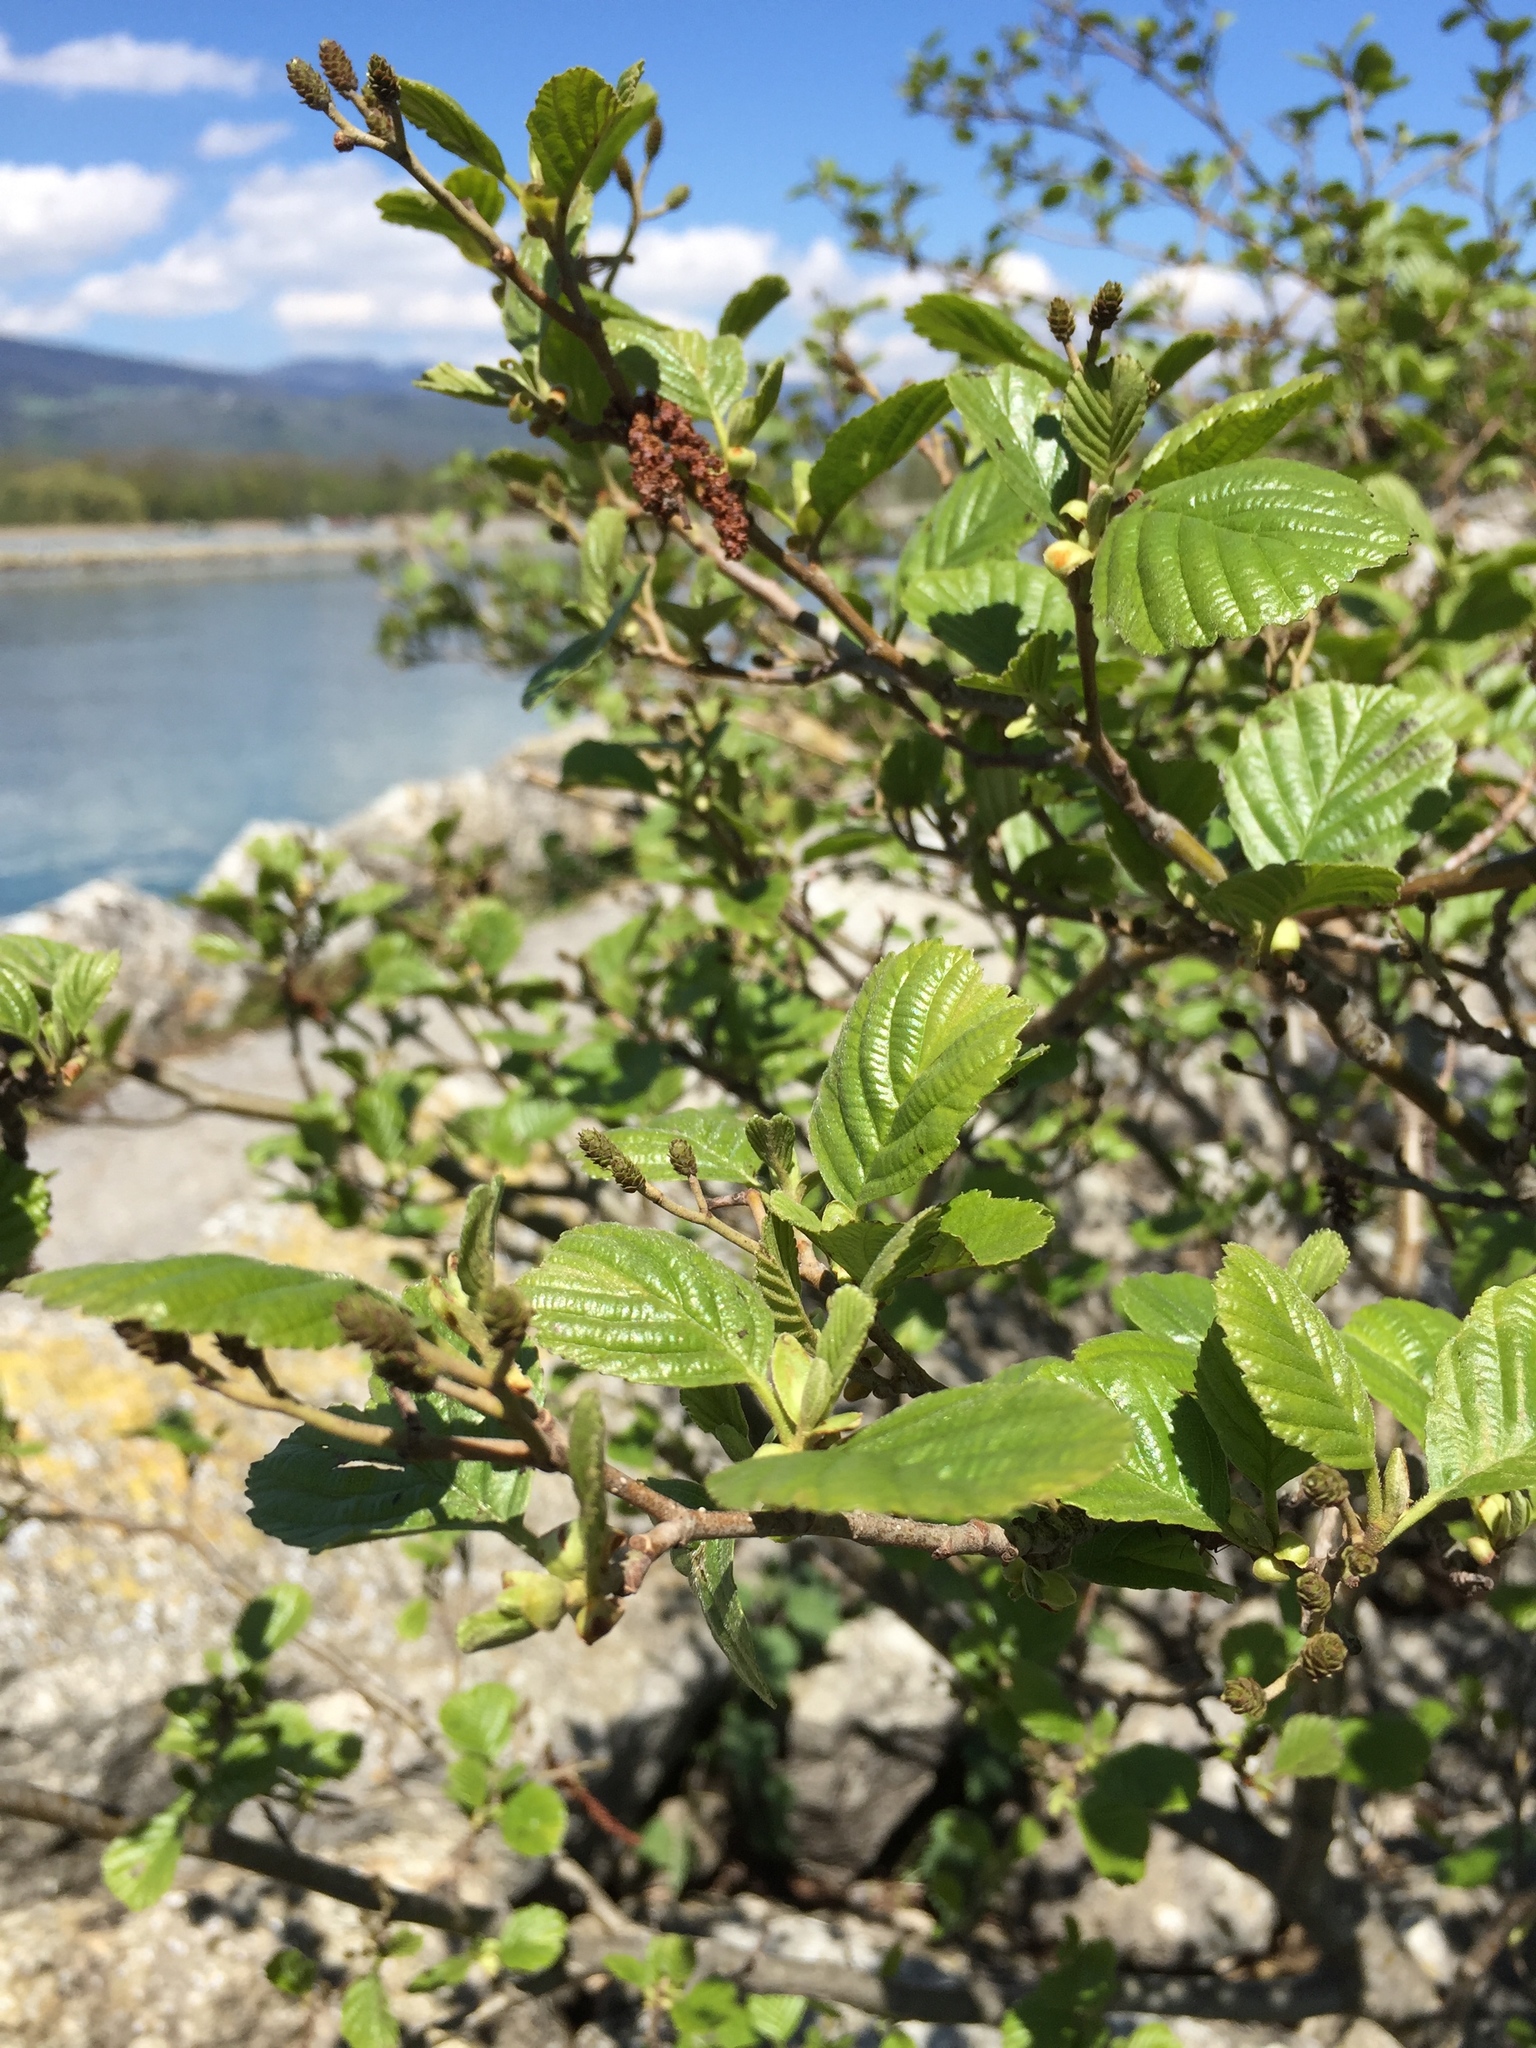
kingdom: Plantae
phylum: Tracheophyta
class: Magnoliopsida
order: Fagales
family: Betulaceae
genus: Alnus
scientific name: Alnus glutinosa
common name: Black alder
